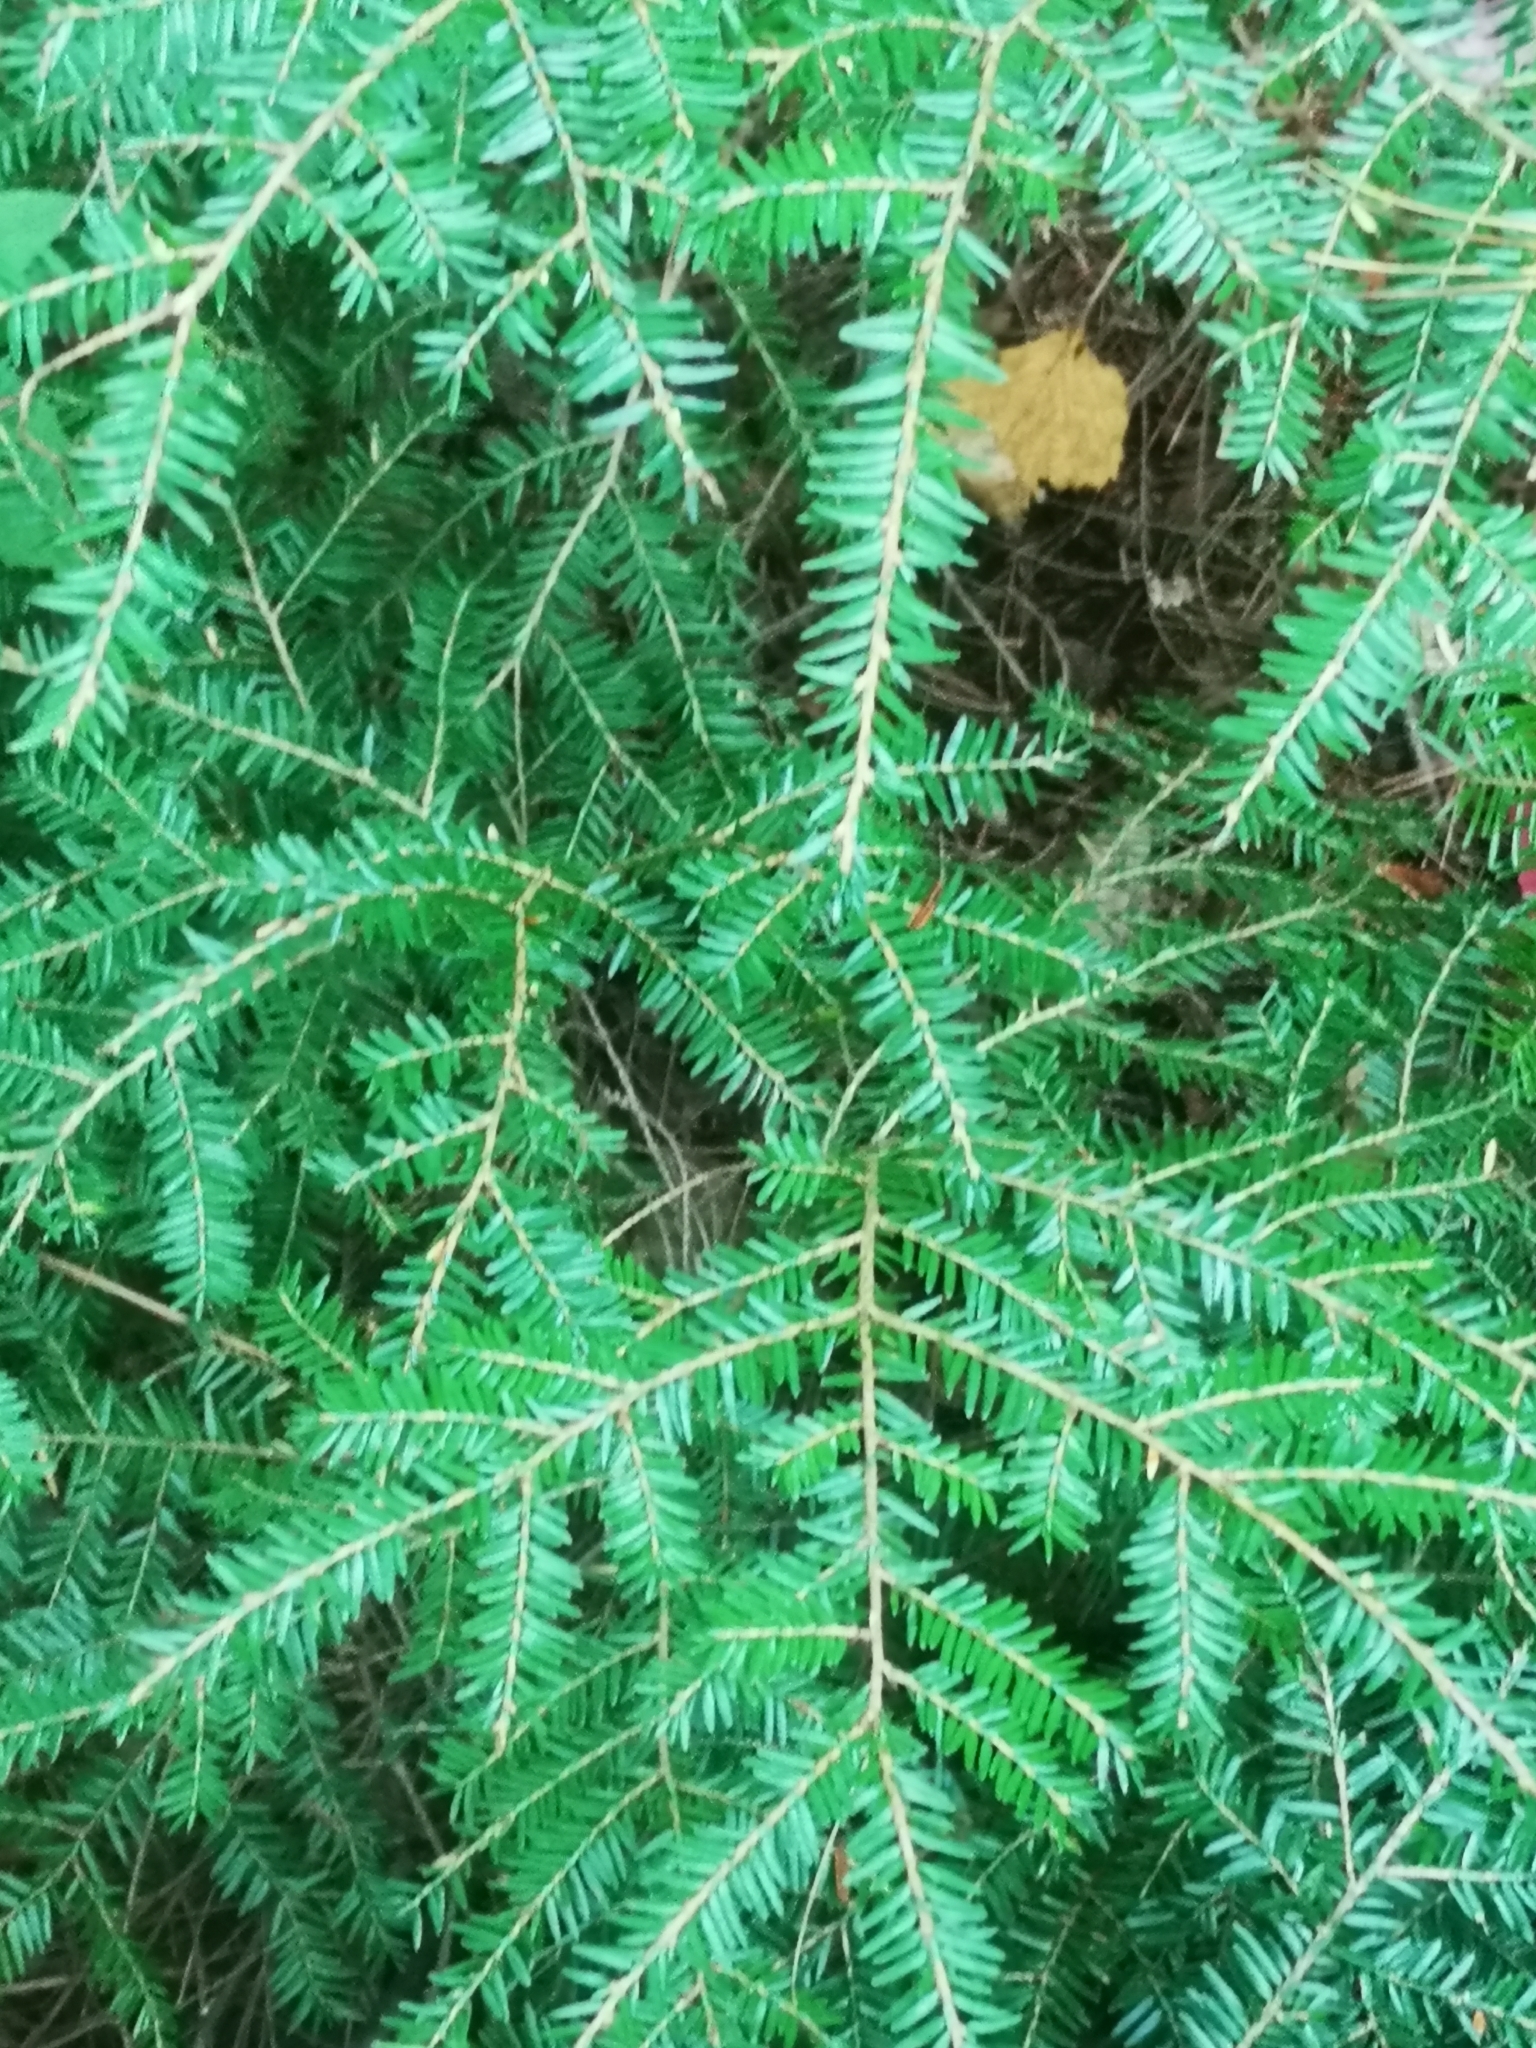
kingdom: Plantae
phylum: Tracheophyta
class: Pinopsida
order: Pinales
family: Pinaceae
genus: Tsuga
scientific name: Tsuga canadensis
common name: Eastern hemlock
